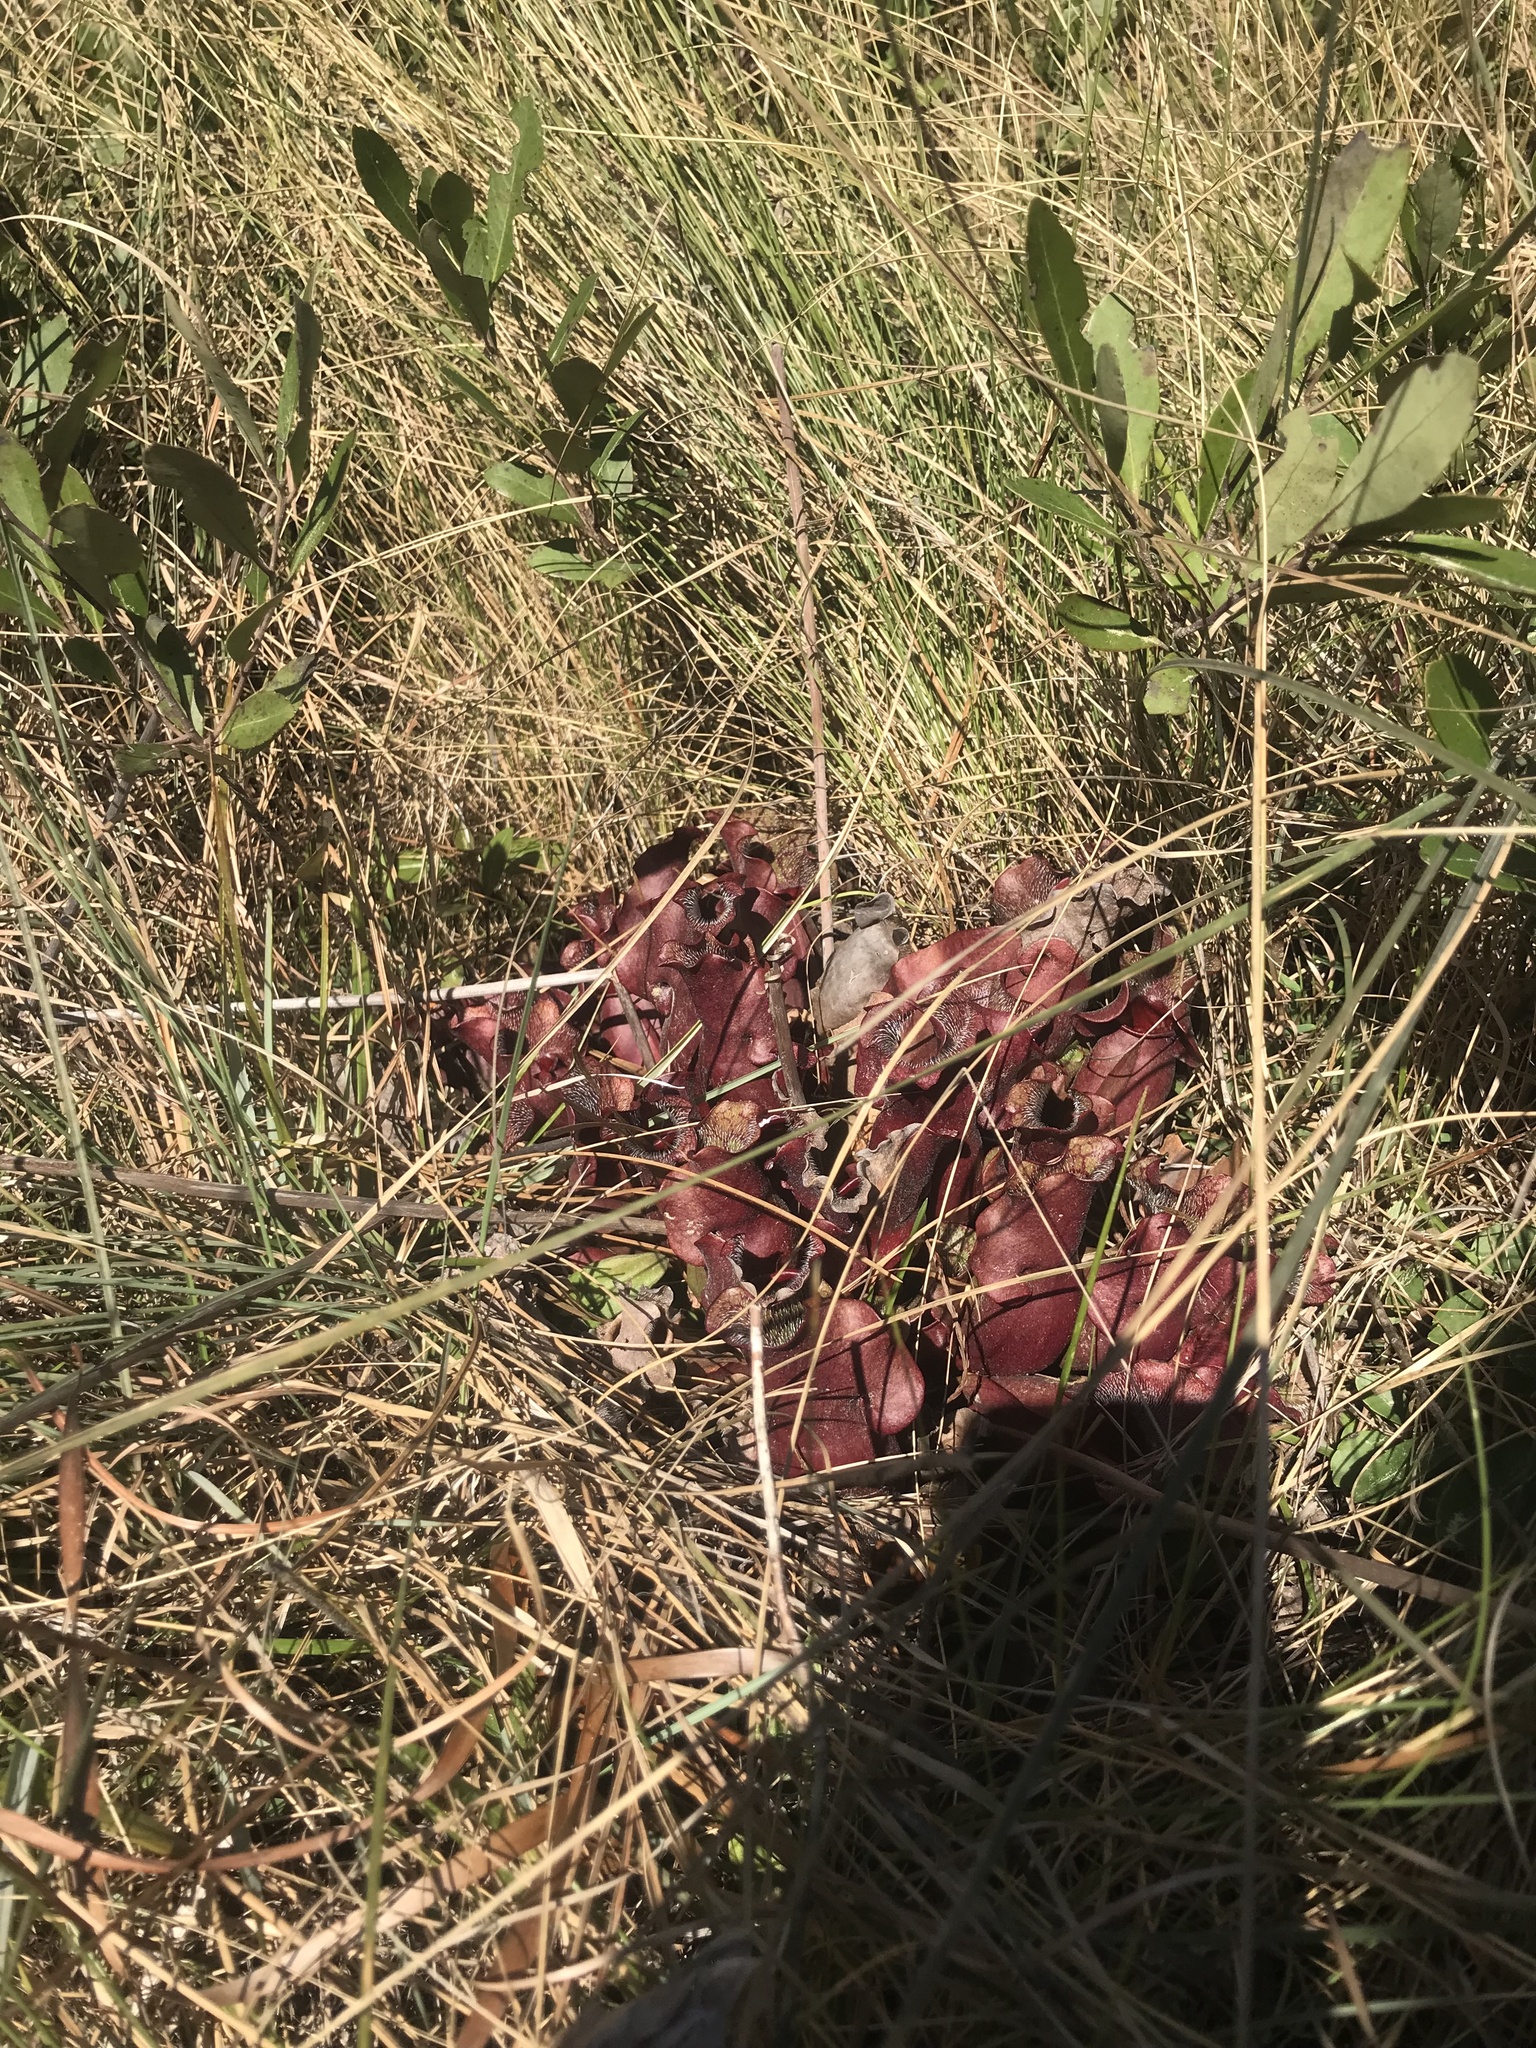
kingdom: Plantae
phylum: Tracheophyta
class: Magnoliopsida
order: Ericales
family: Sarraceniaceae
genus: Sarracenia
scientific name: Sarracenia purpurea
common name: Pitcherplant
